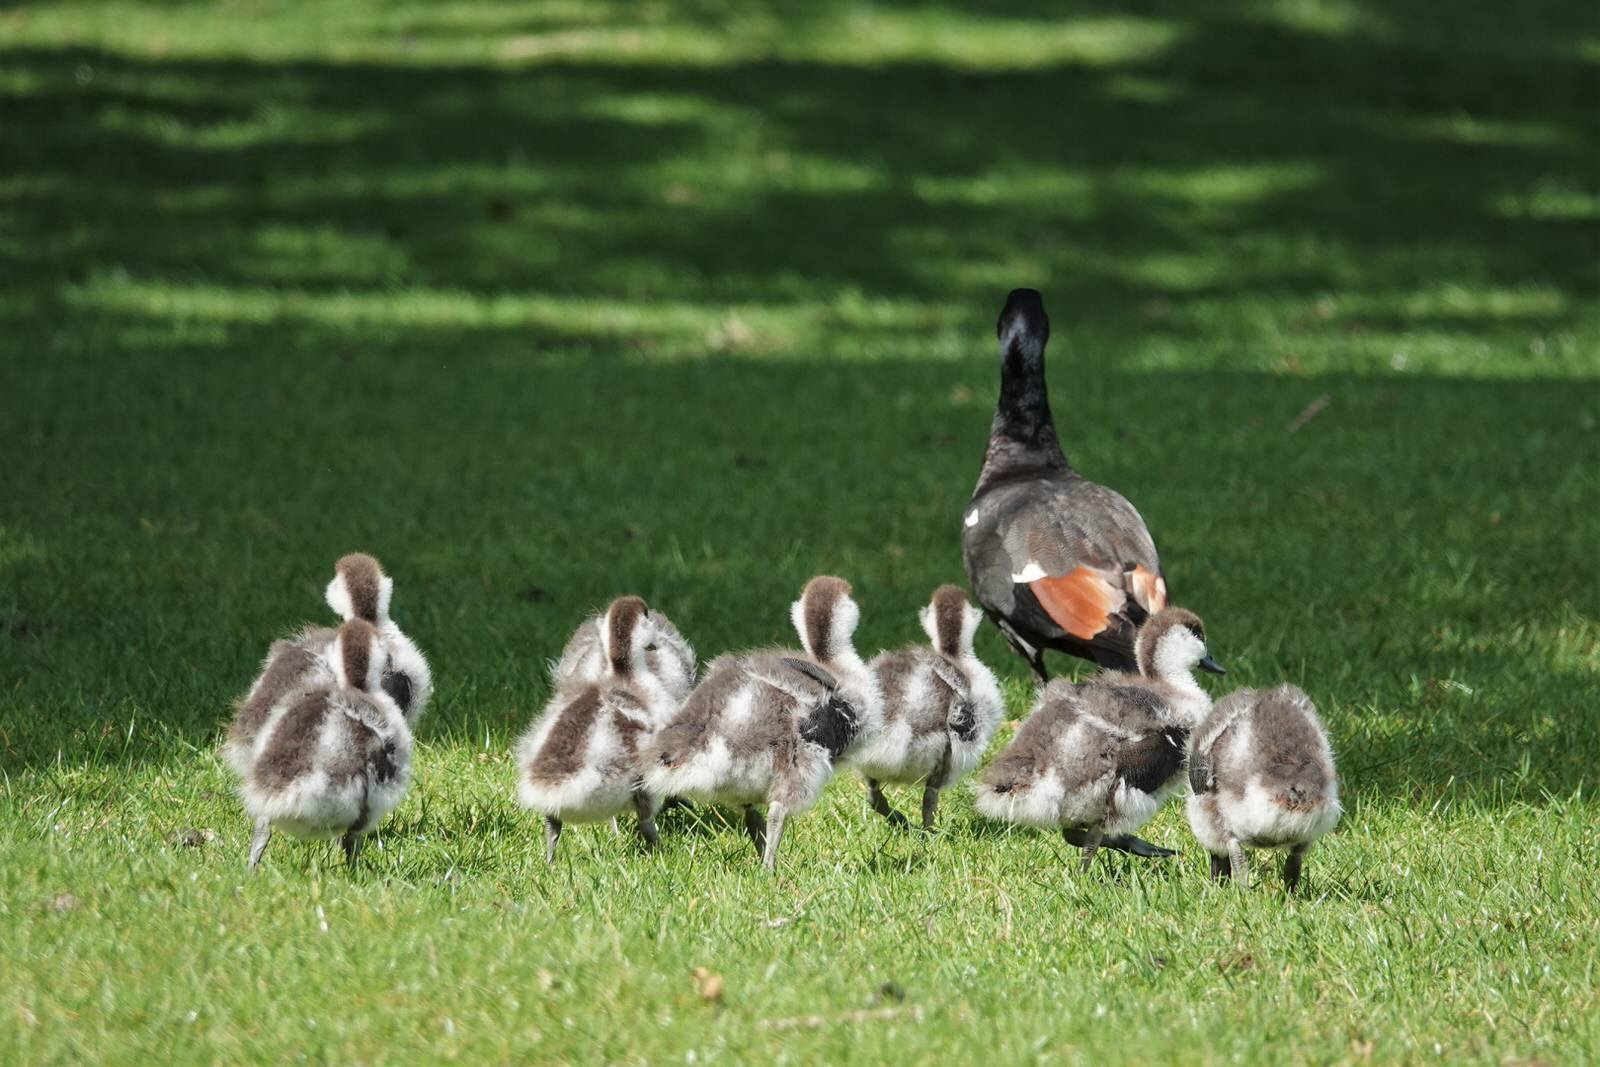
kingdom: Animalia
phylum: Chordata
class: Aves
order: Anseriformes
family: Anatidae
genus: Tadorna
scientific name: Tadorna variegata
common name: Paradise shelduck
